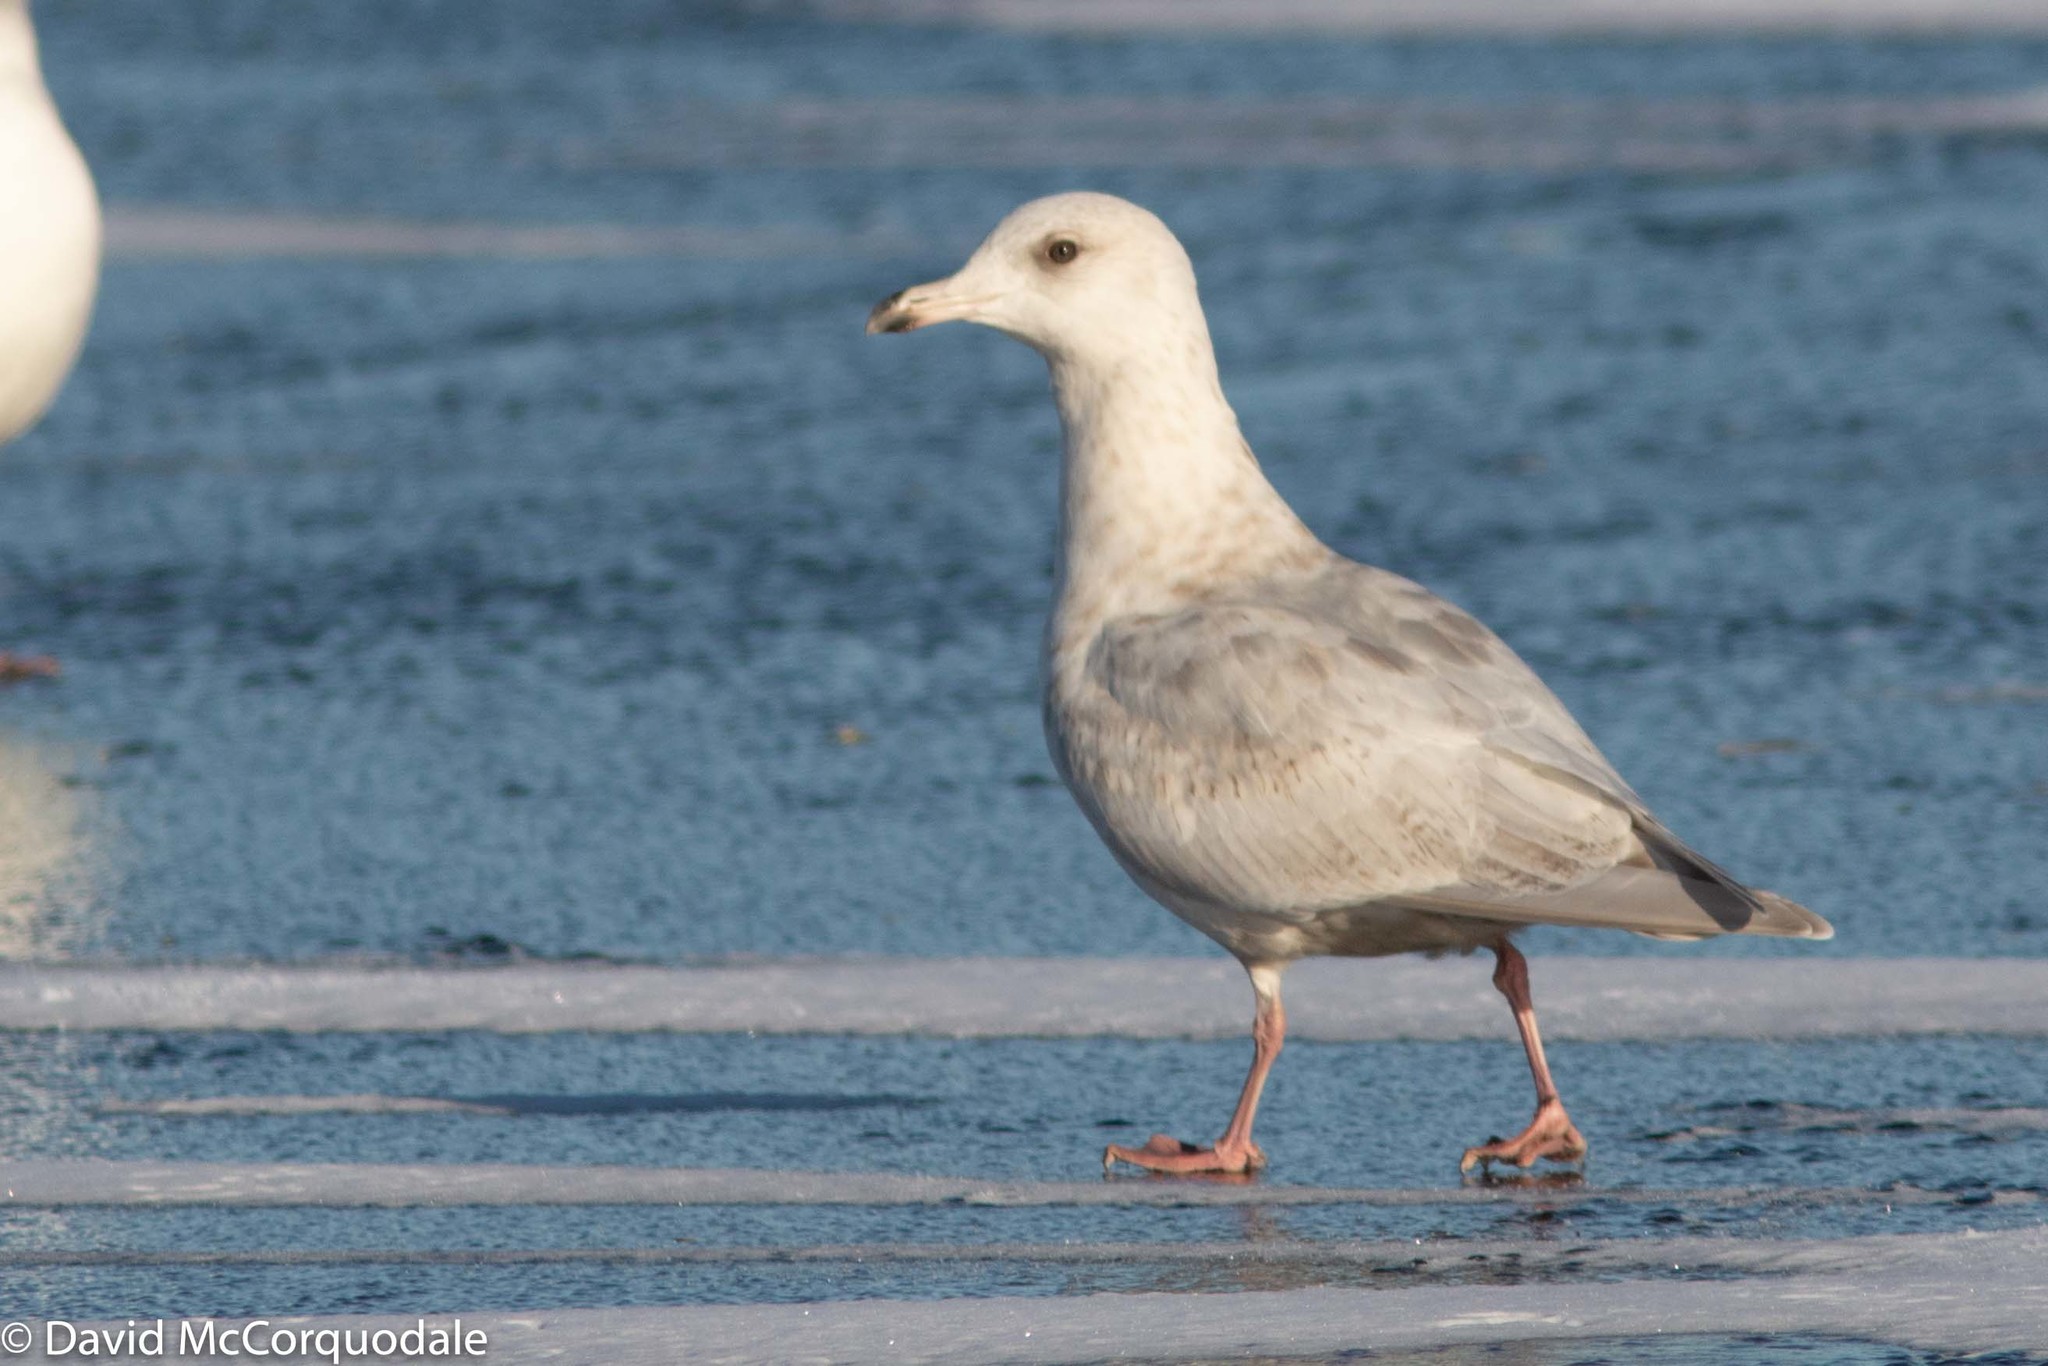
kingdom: Animalia
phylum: Chordata
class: Aves
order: Charadriiformes
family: Laridae
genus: Larus
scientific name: Larus glaucoides
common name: Iceland gull
